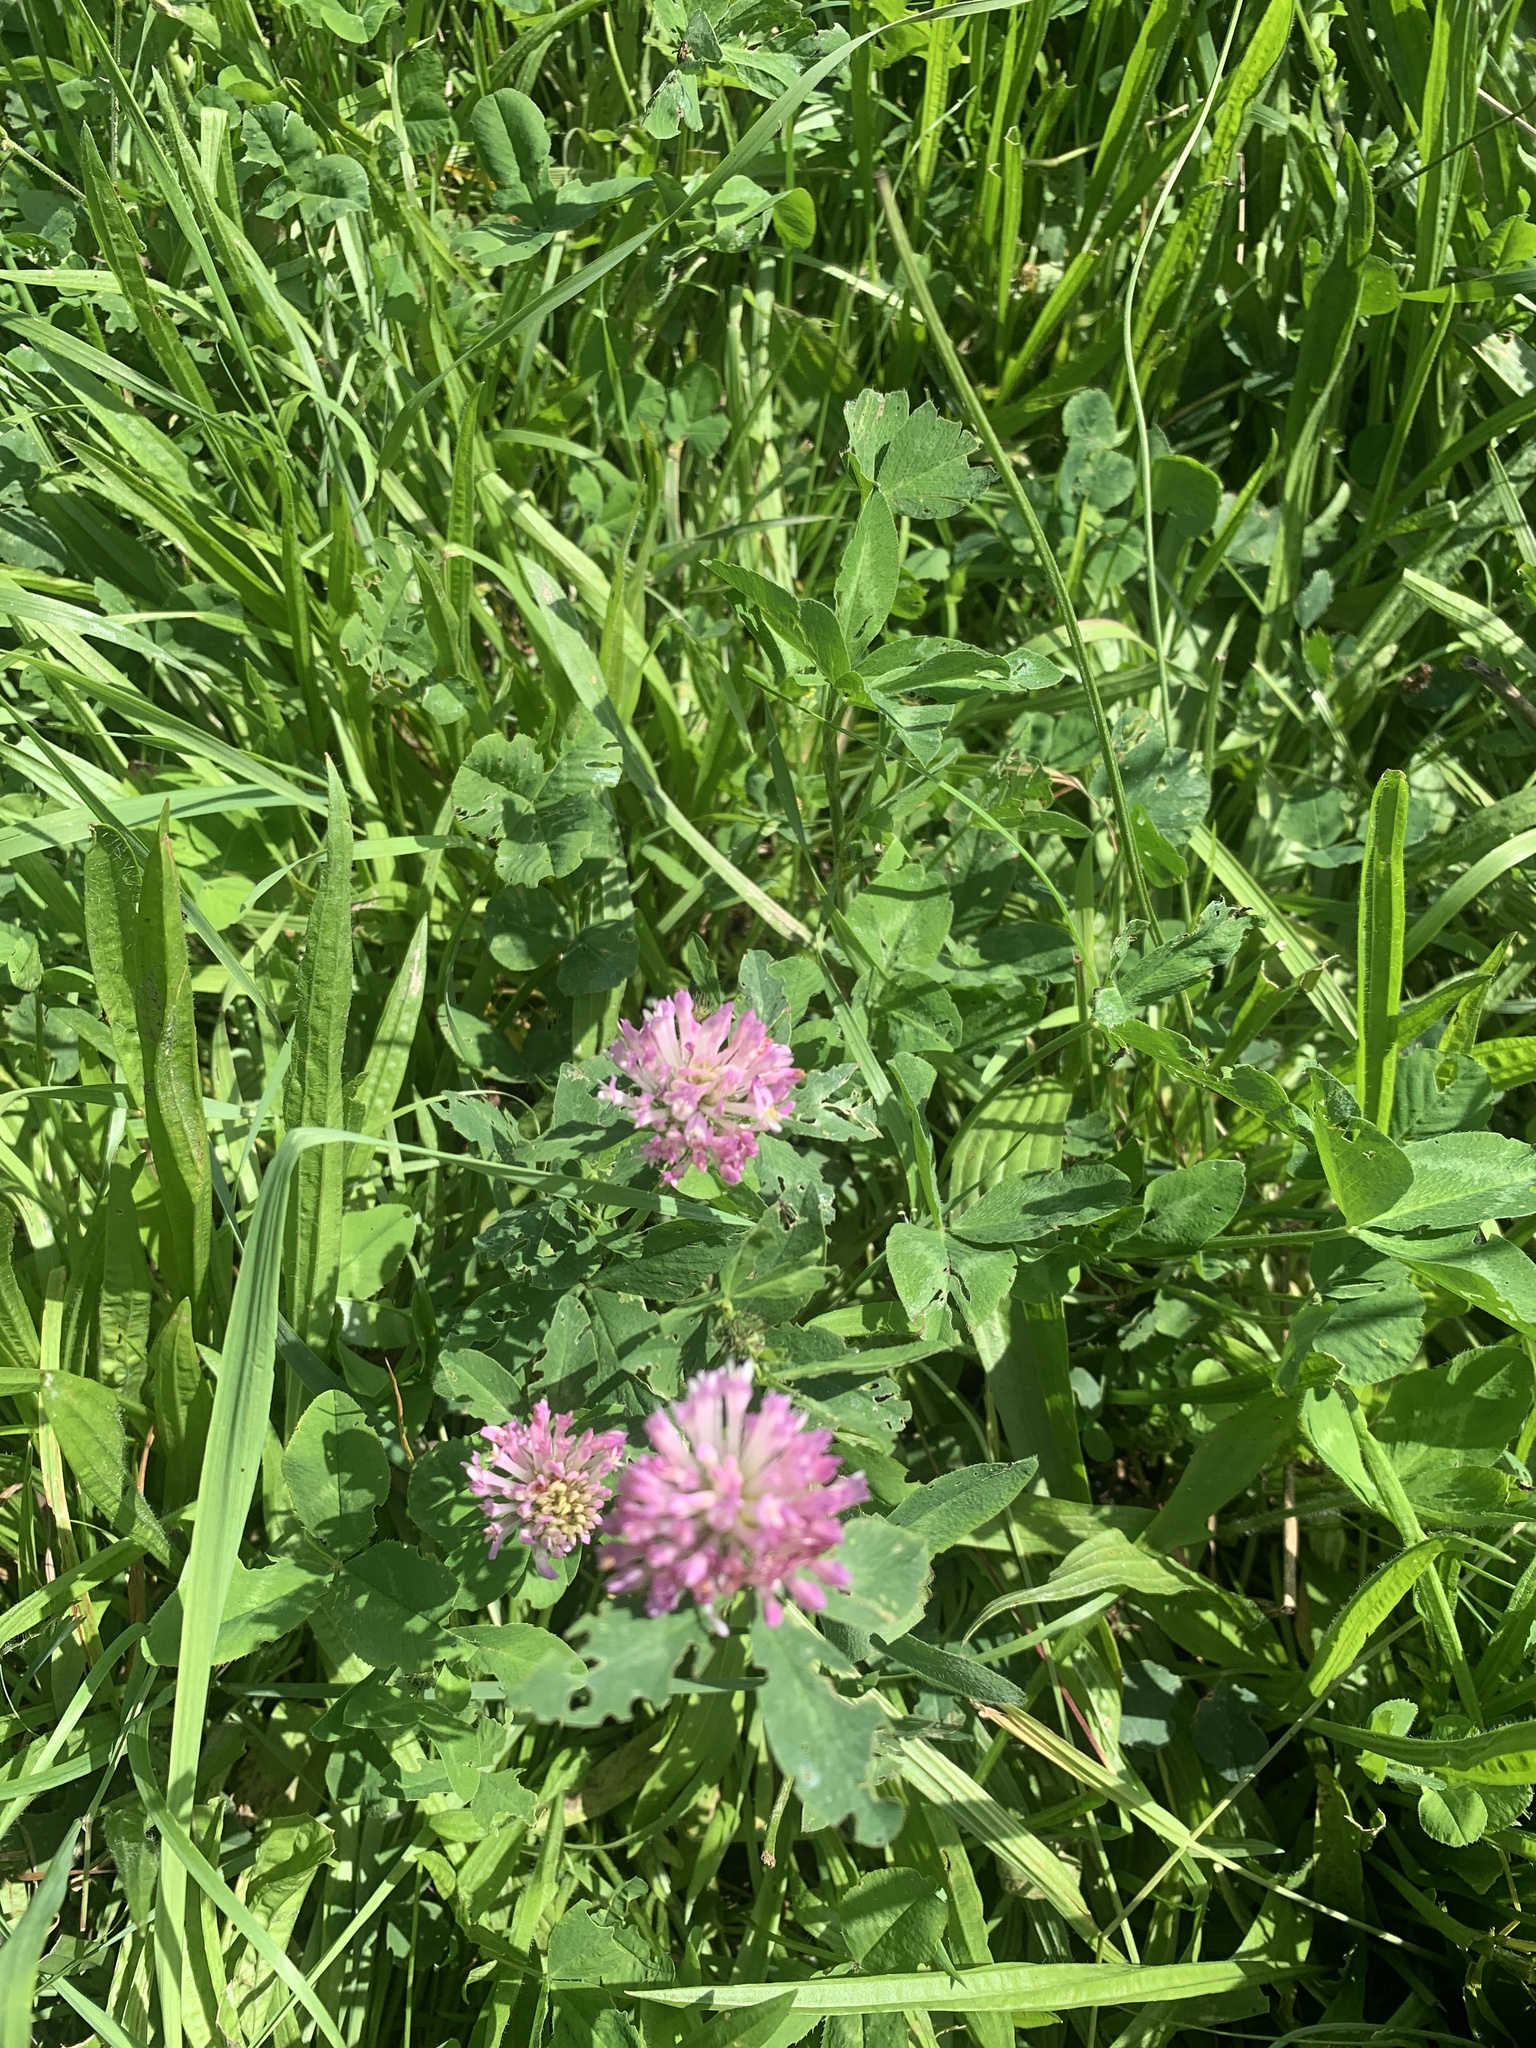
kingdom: Plantae
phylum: Tracheophyta
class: Magnoliopsida
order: Fabales
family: Fabaceae
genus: Trifolium
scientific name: Trifolium pratense
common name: Red clover
